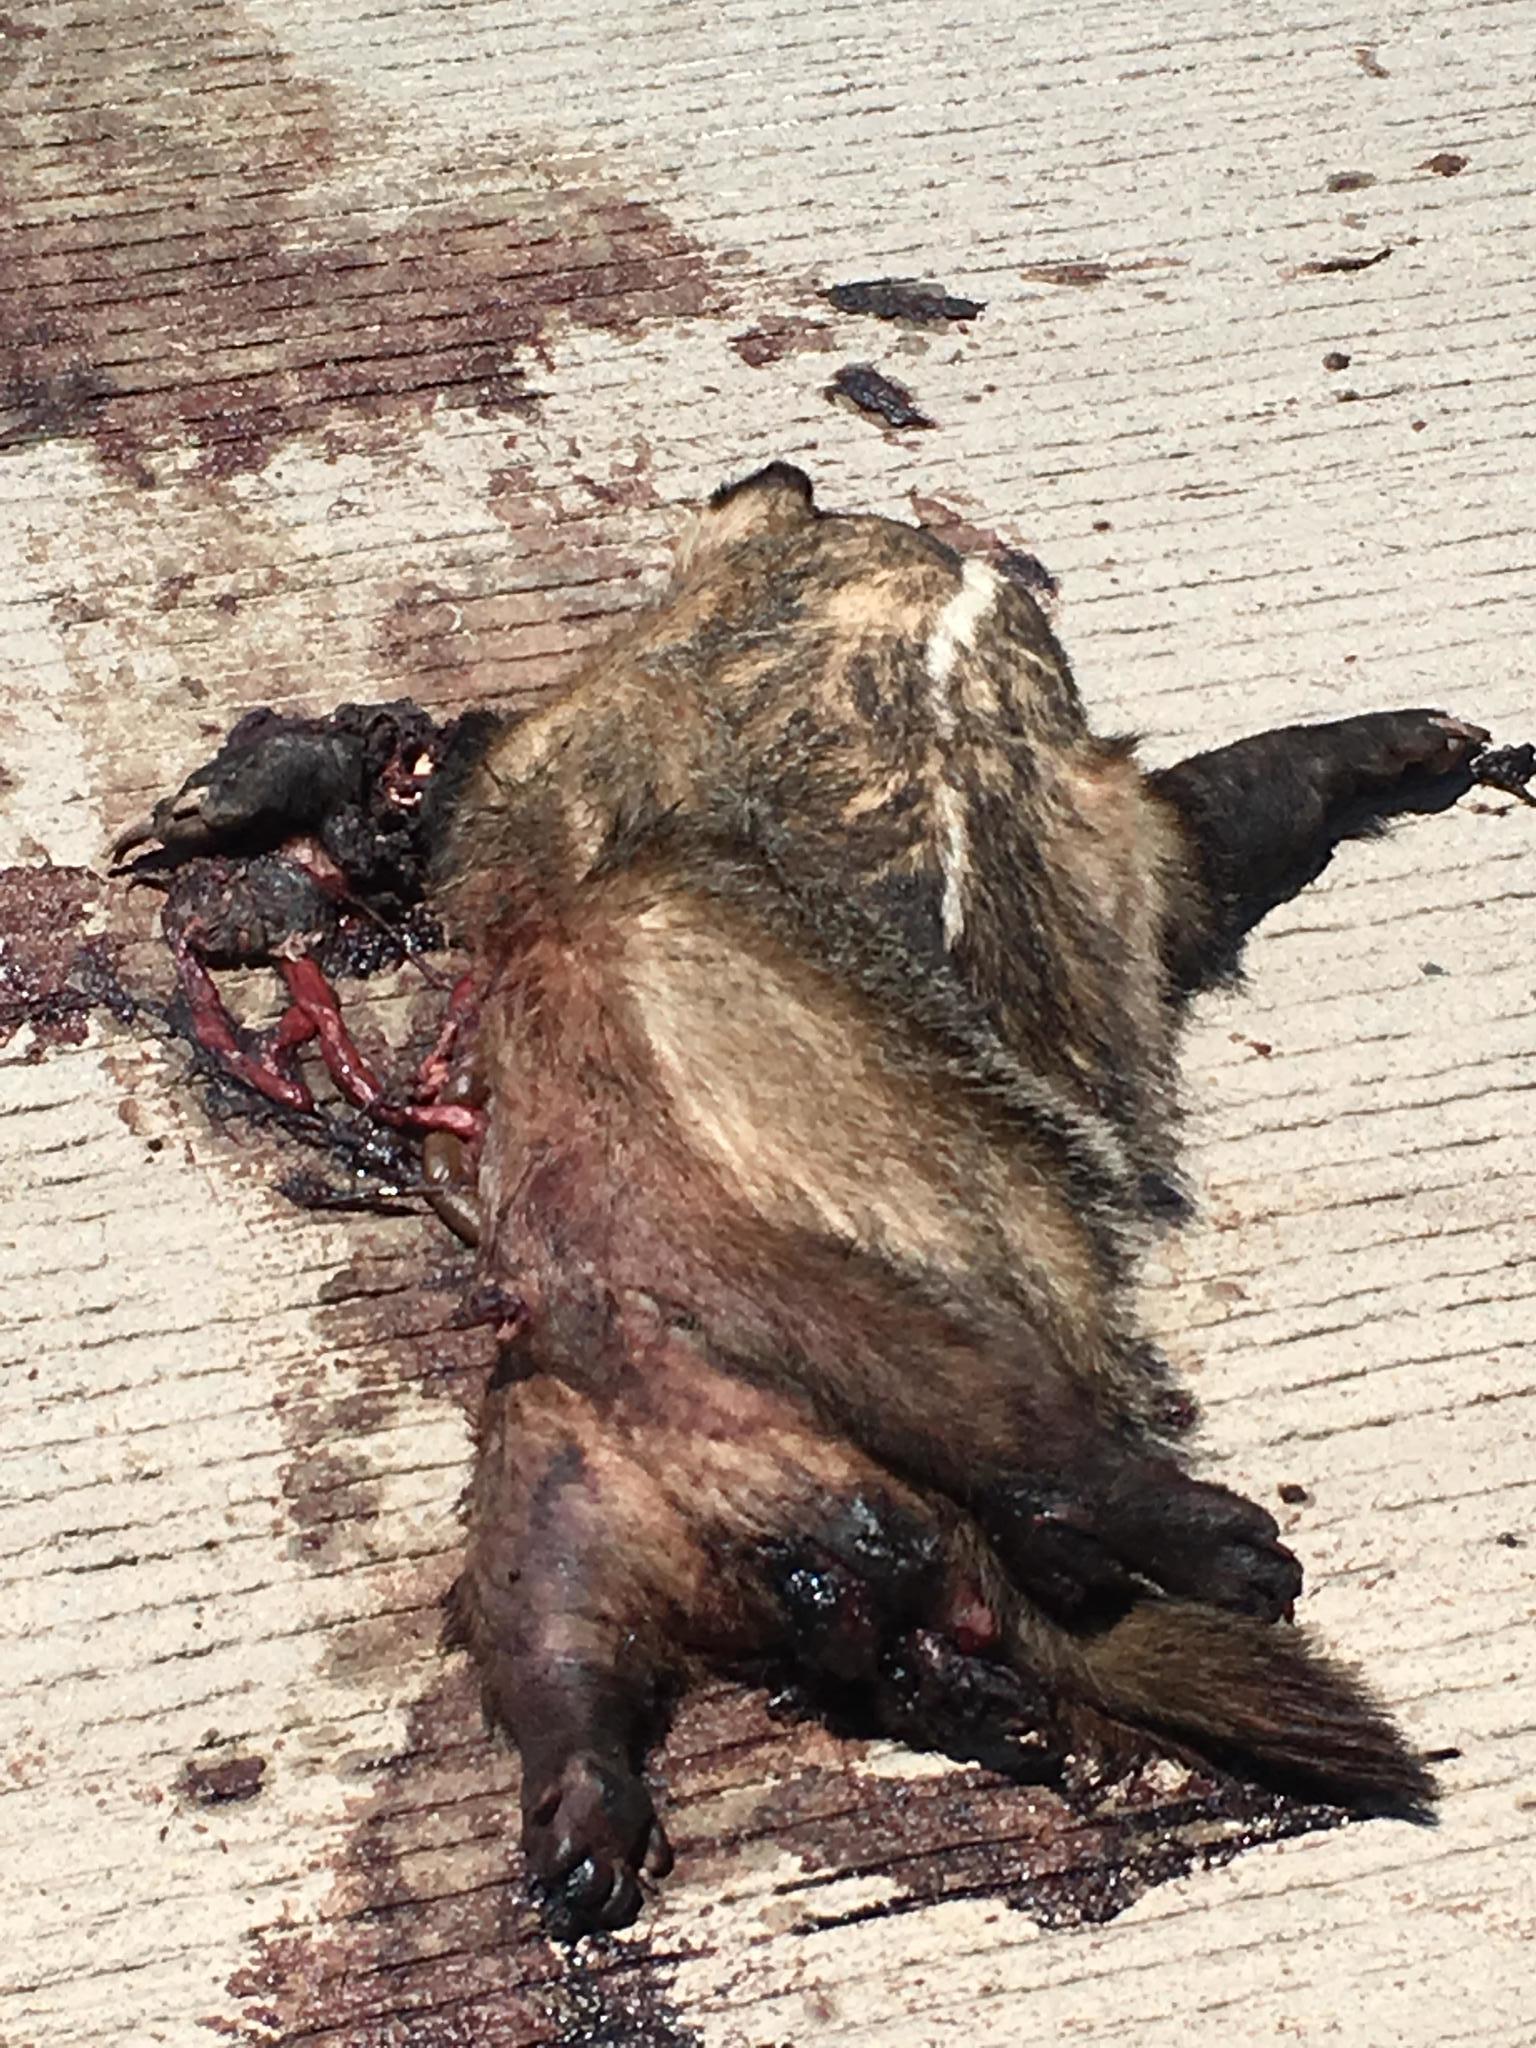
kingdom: Animalia
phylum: Chordata
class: Mammalia
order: Carnivora
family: Mustelidae
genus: Taxidea
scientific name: Taxidea taxus
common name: American badger
